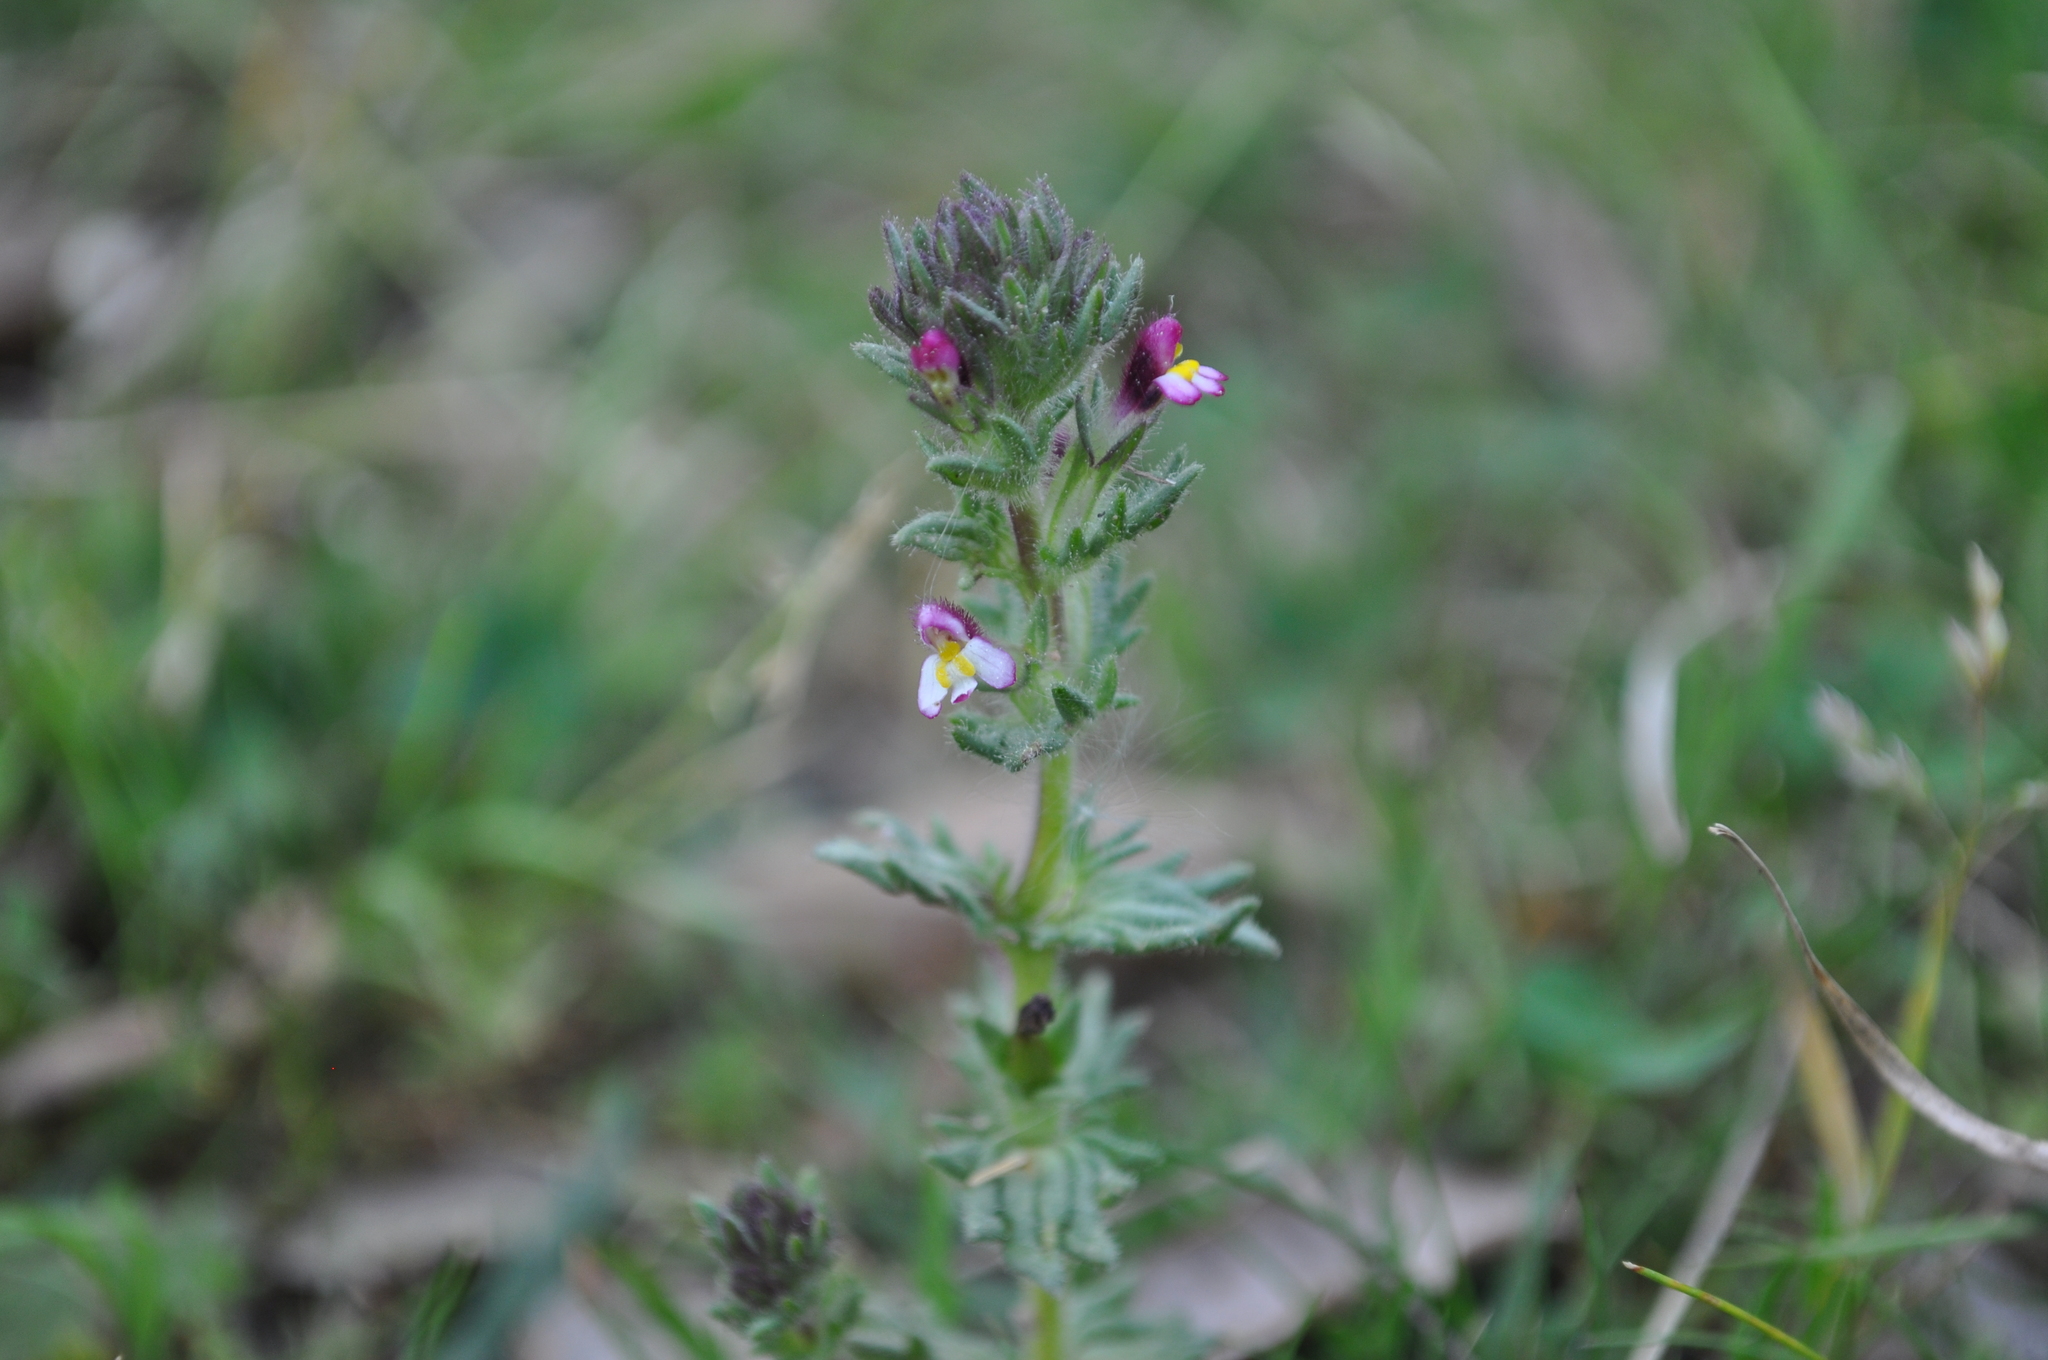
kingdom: Plantae
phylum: Tracheophyta
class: Magnoliopsida
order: Lamiales
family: Orobanchaceae
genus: Parentucellia
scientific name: Parentucellia latifolia
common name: Broadleaf glandweed
